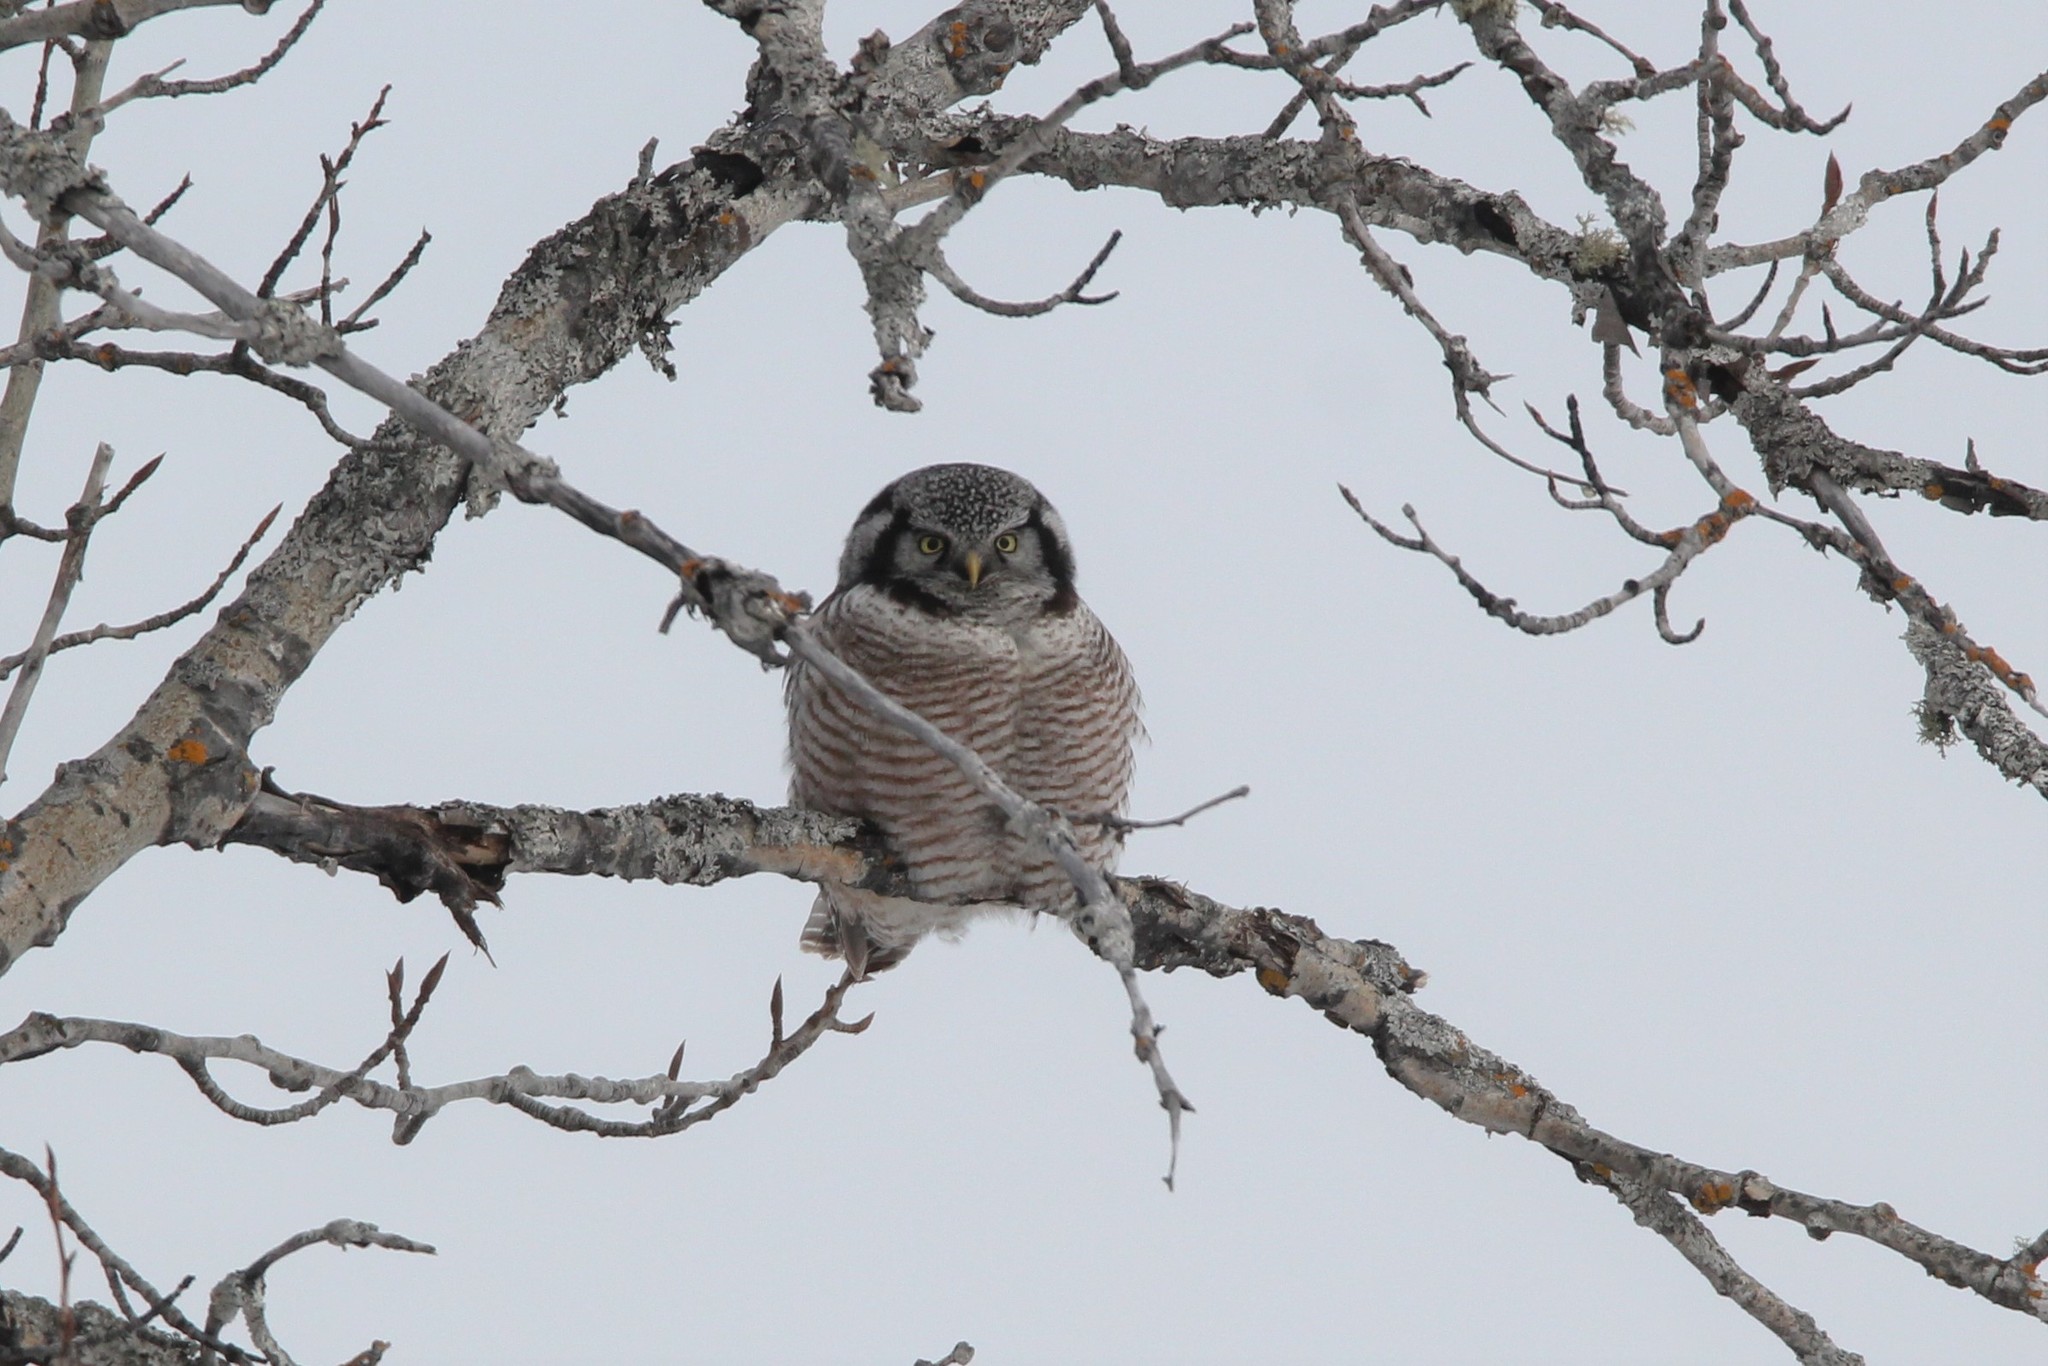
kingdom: Animalia
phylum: Chordata
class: Aves
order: Strigiformes
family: Strigidae
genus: Surnia
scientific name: Surnia ulula
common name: Northern hawk-owl
